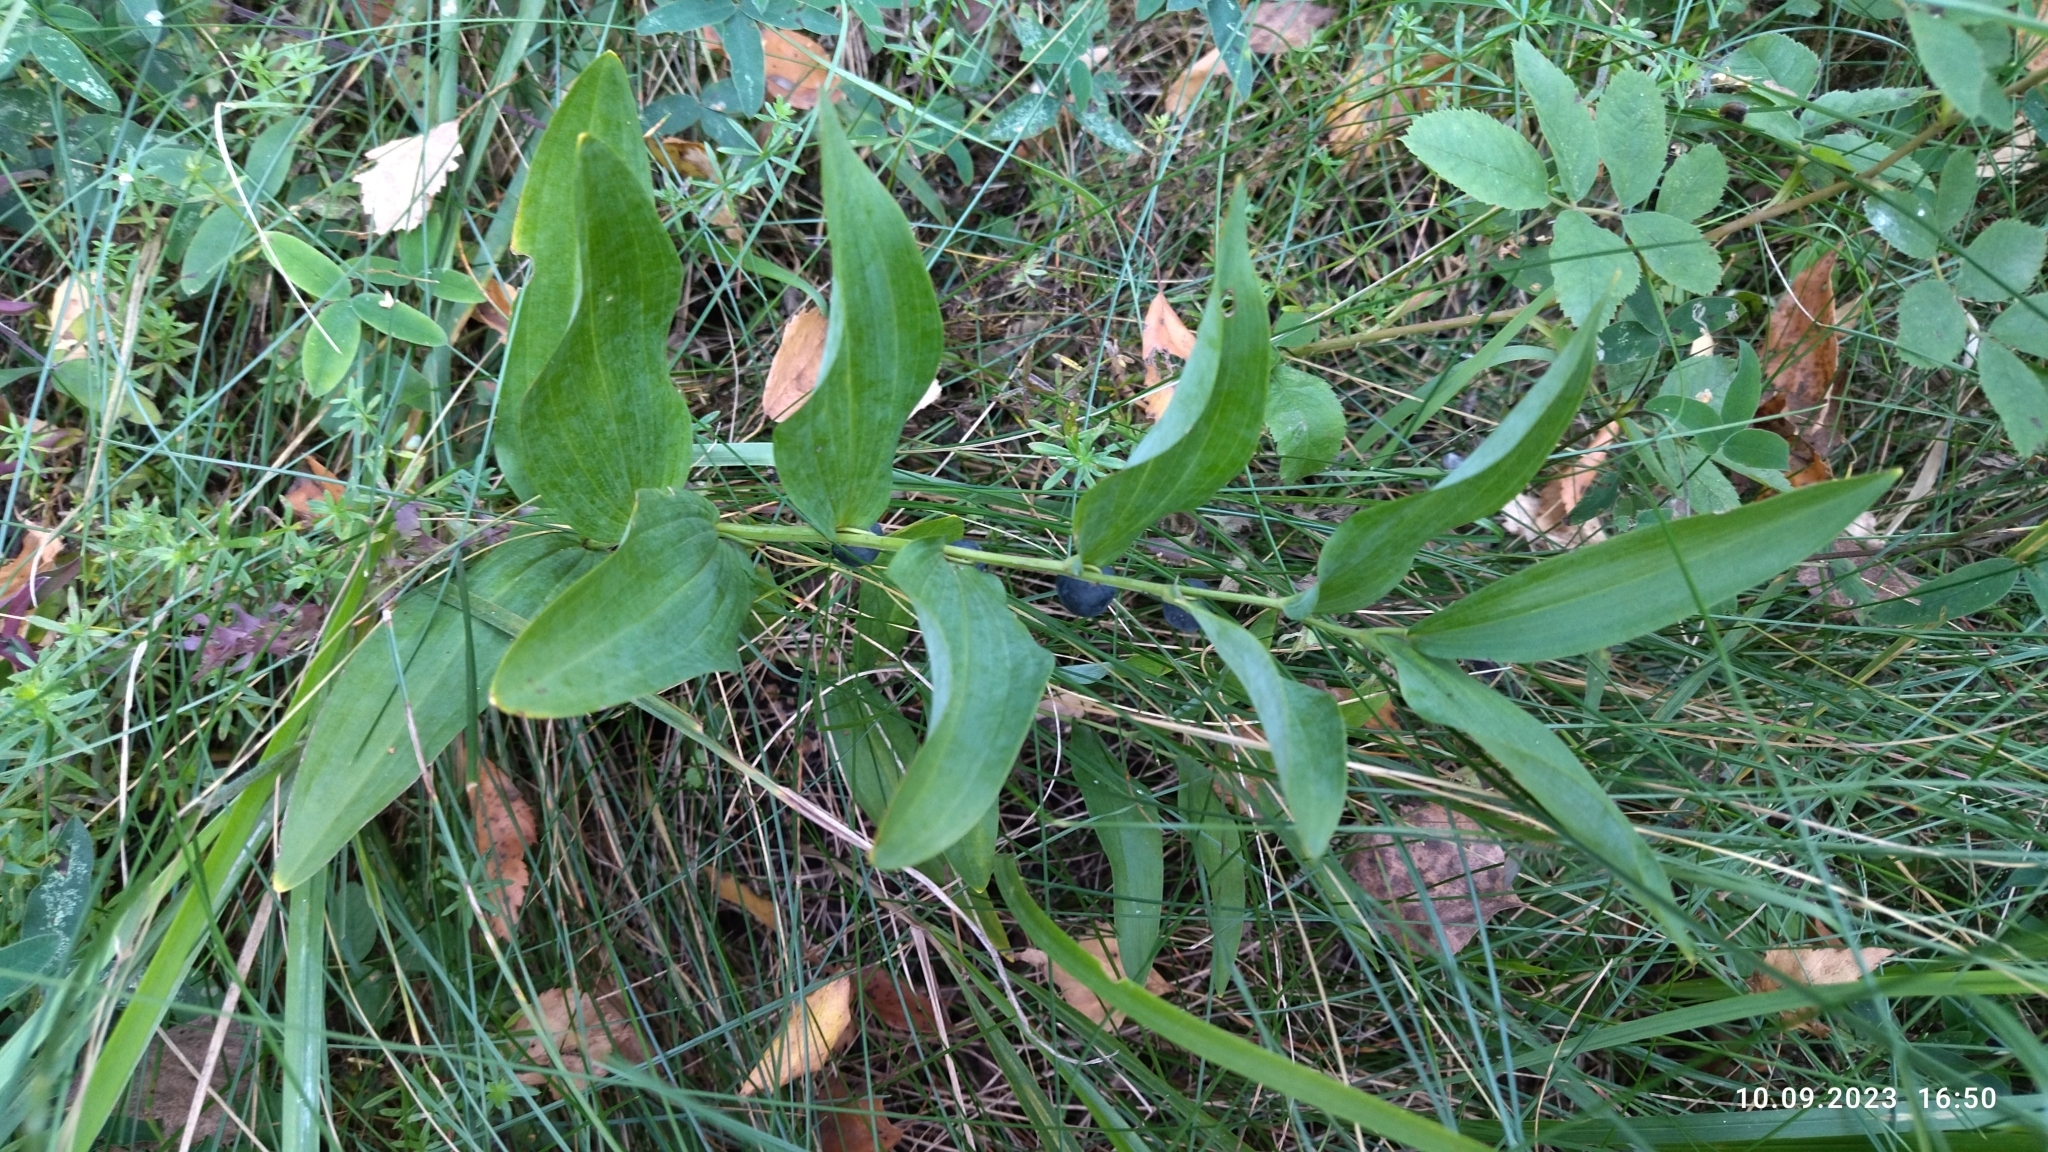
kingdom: Plantae
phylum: Tracheophyta
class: Liliopsida
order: Asparagales
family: Asparagaceae
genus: Polygonatum
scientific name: Polygonatum odoratum
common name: Angular solomon's-seal
